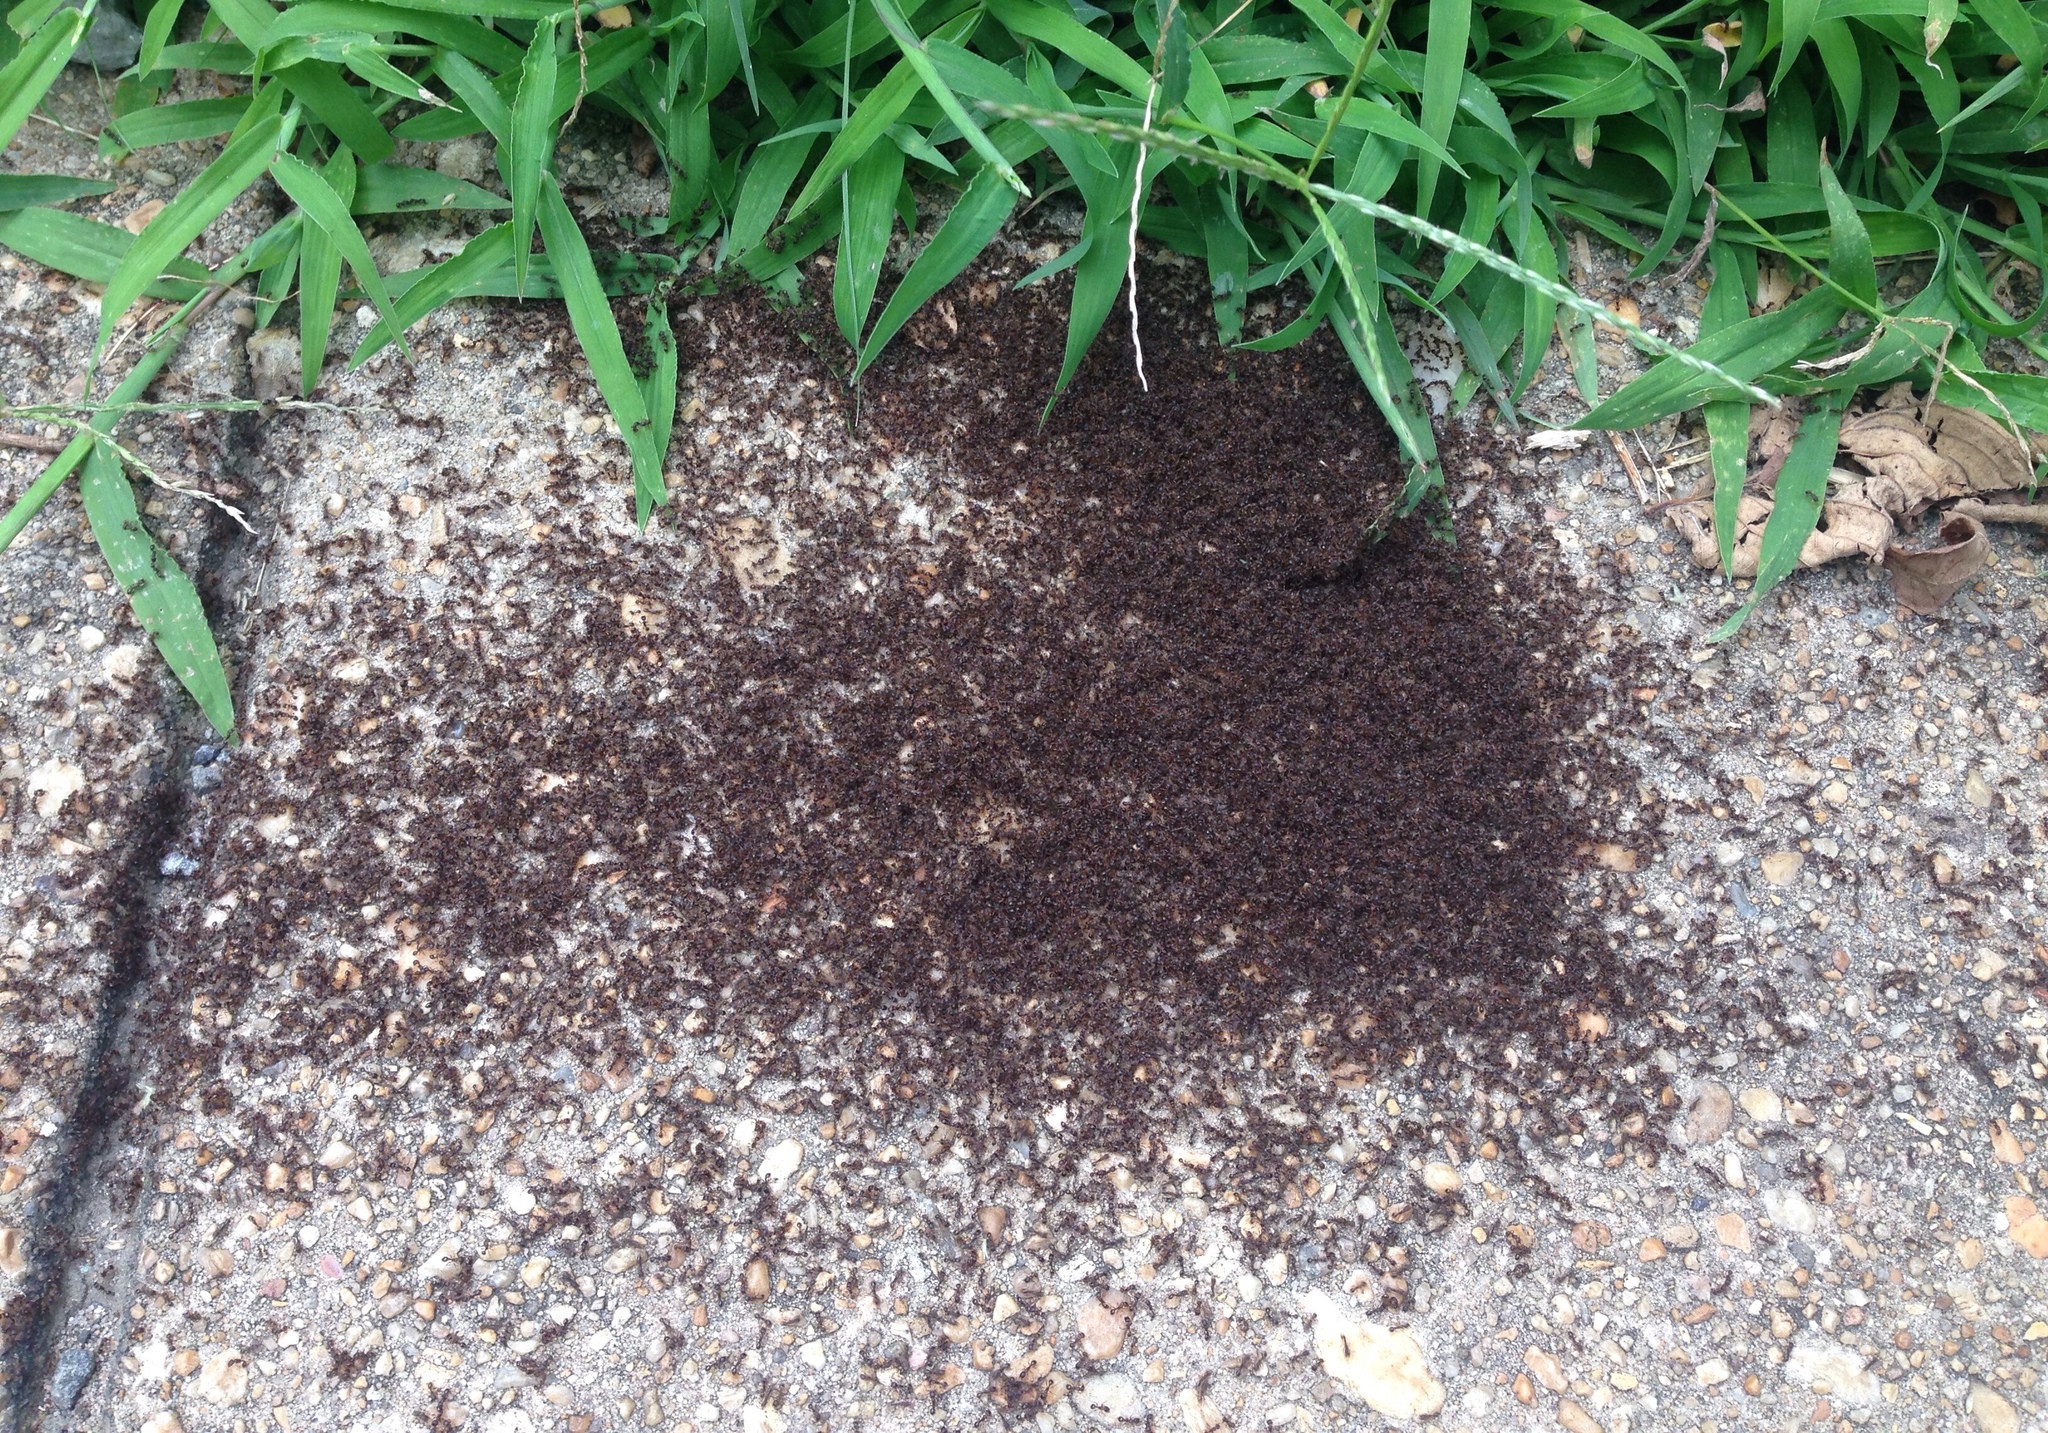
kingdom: Animalia
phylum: Arthropoda
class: Insecta
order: Hymenoptera
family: Formicidae
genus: Tetramorium
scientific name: Tetramorium immigrans
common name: Pavement ant
